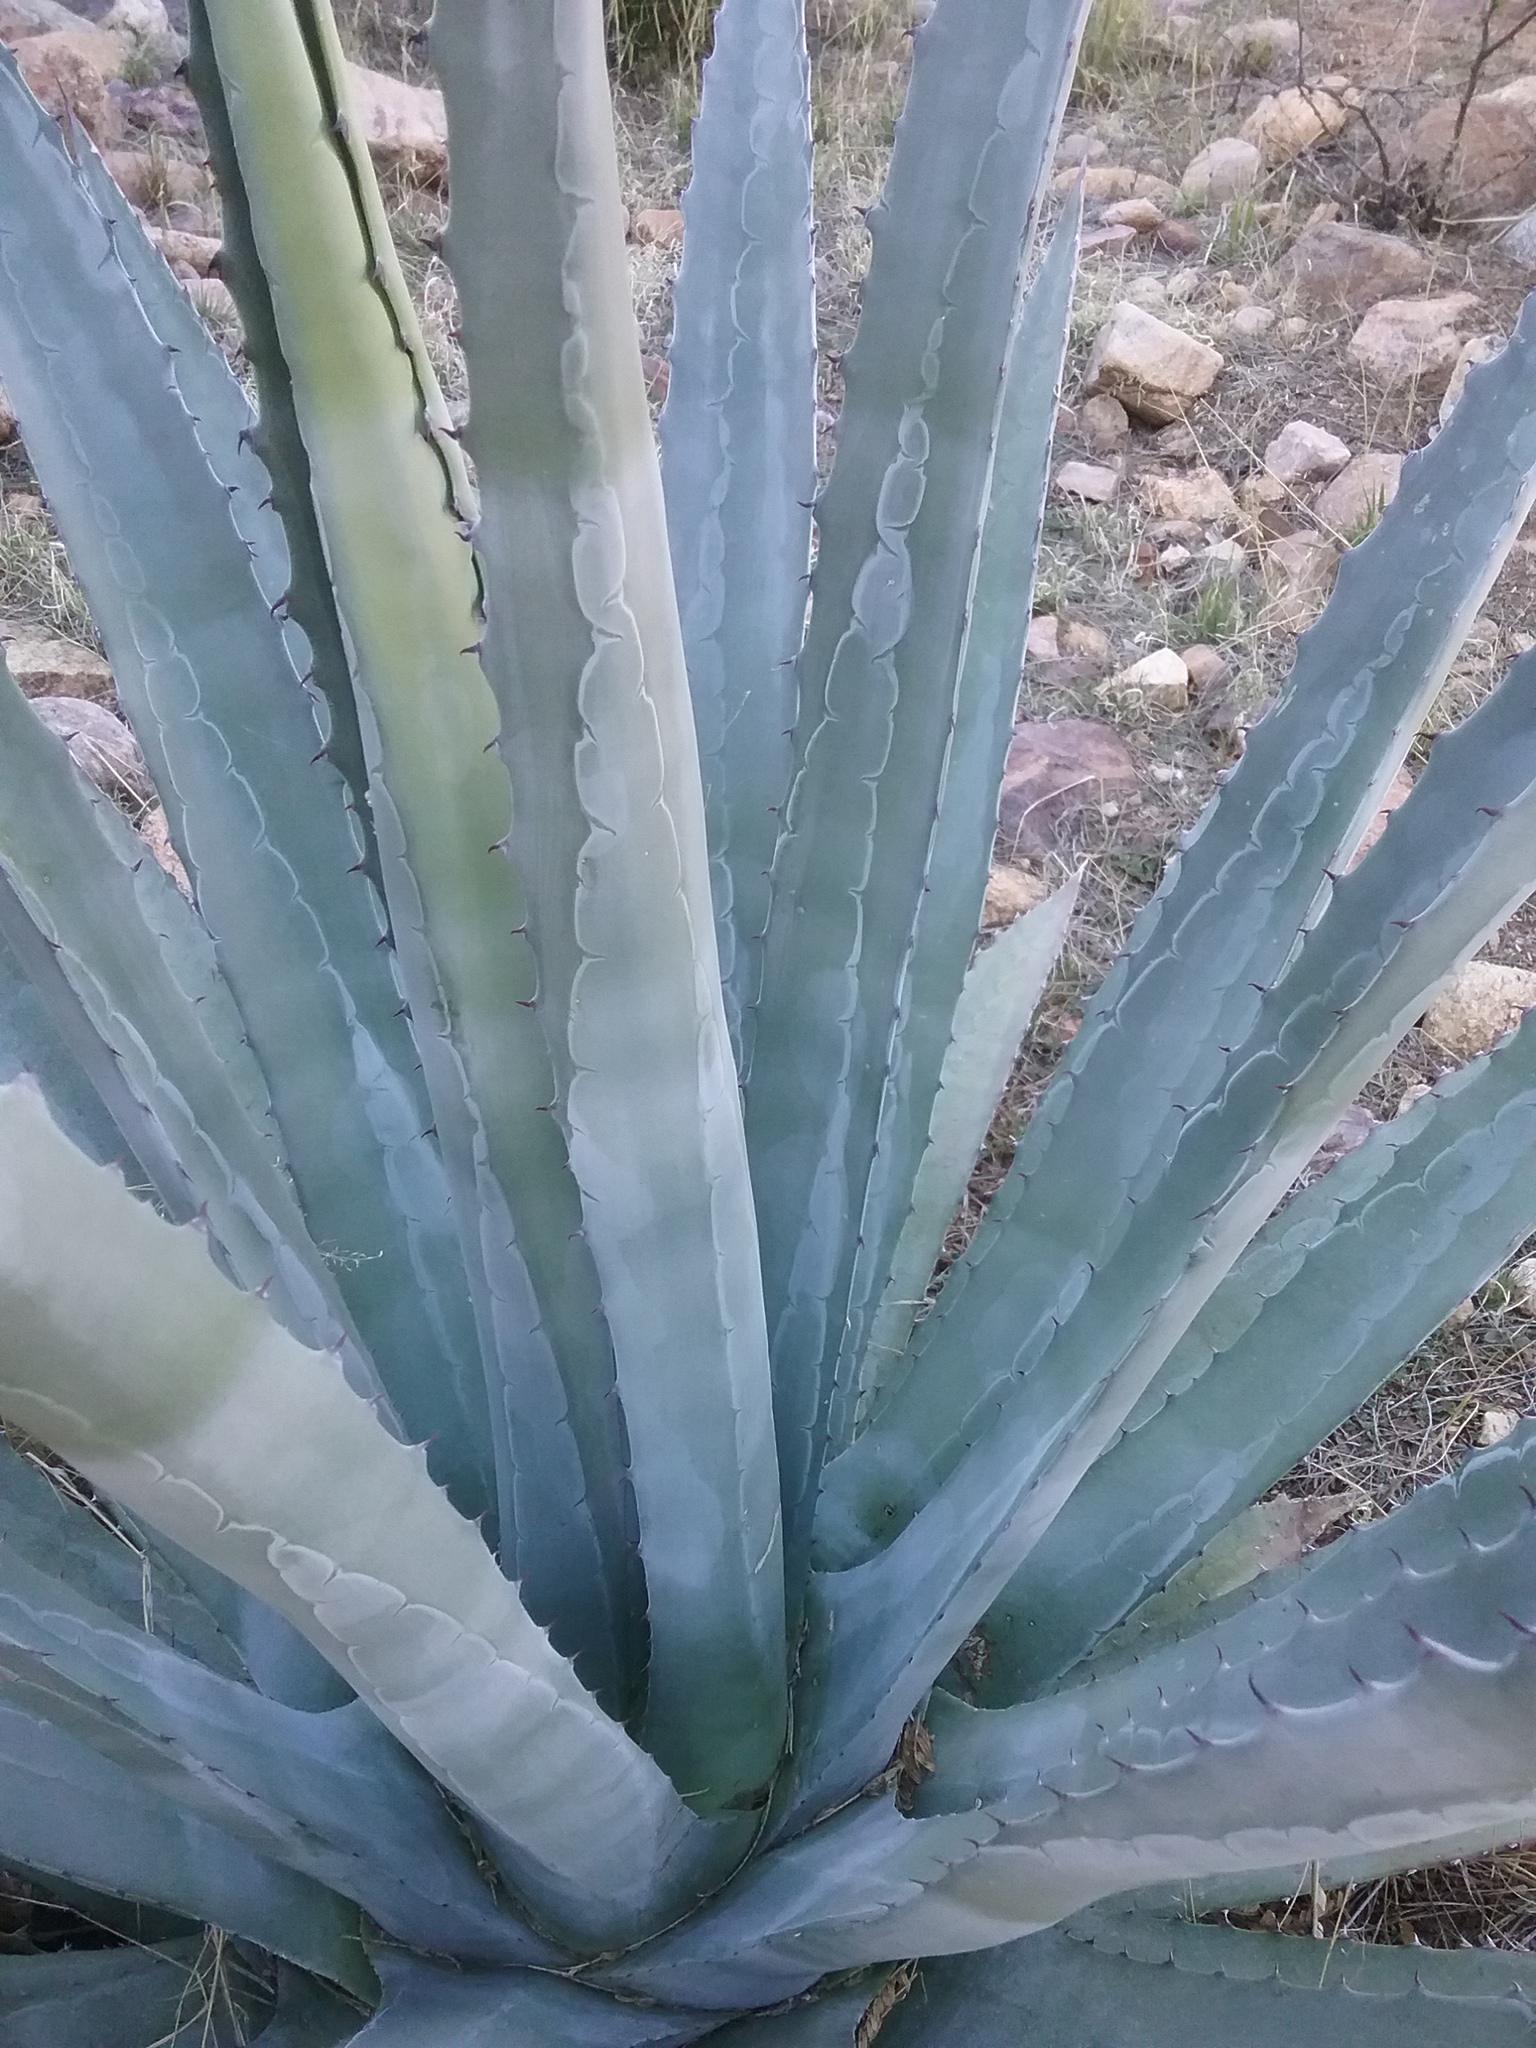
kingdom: Plantae
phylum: Tracheophyta
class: Liliopsida
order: Asparagales
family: Asparagaceae
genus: Agave
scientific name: Agave palmeri
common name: Palmer agave
